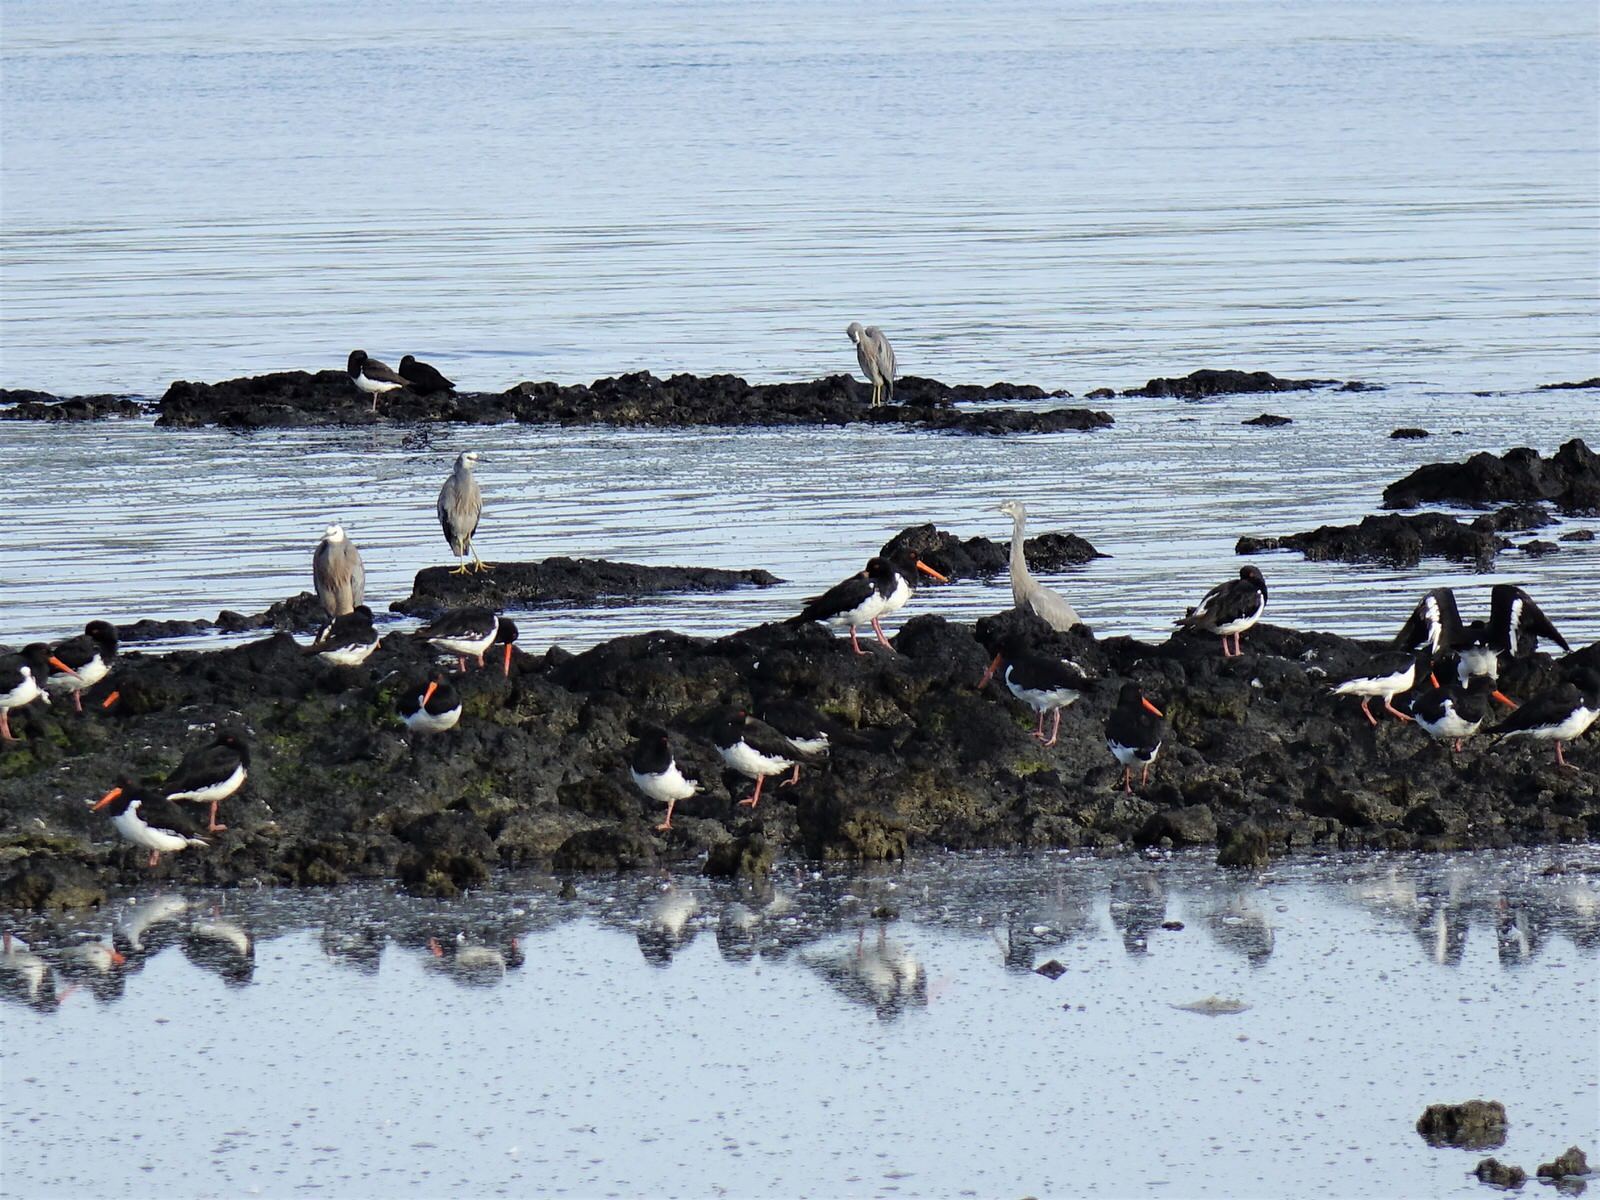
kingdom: Animalia
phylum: Chordata
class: Aves
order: Pelecaniformes
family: Ardeidae
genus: Egretta
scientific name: Egretta novaehollandiae
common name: White-faced heron
